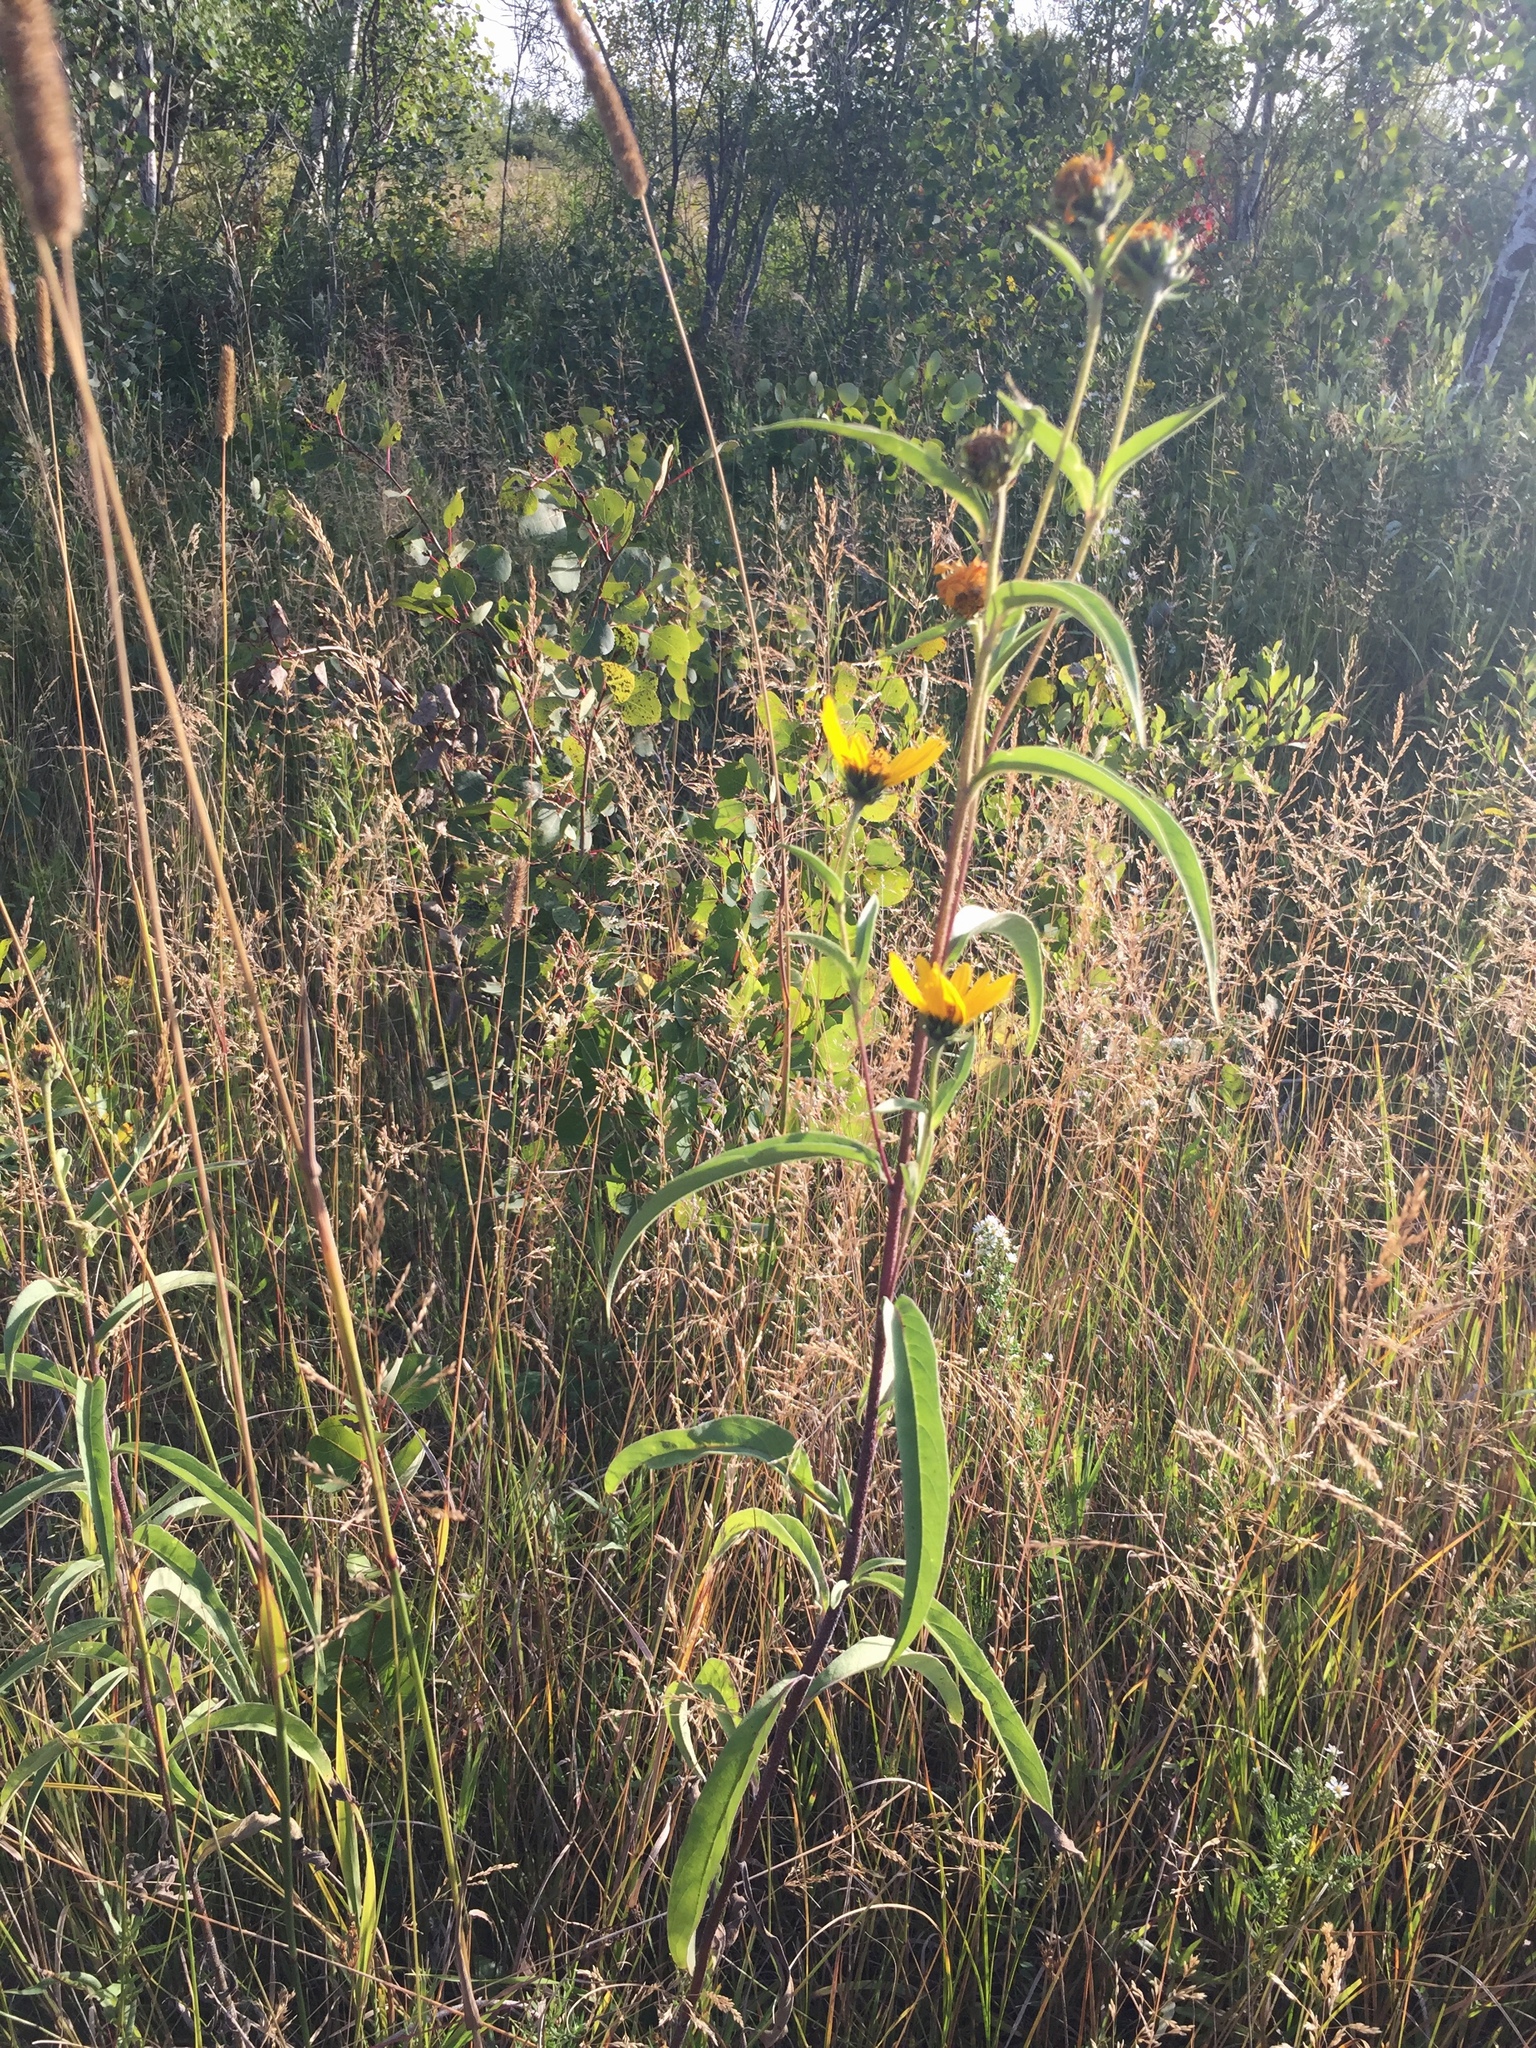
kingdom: Plantae
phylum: Tracheophyta
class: Magnoliopsida
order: Asterales
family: Asteraceae
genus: Helianthus
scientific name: Helianthus maximiliani
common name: Maximilian's sunflower
